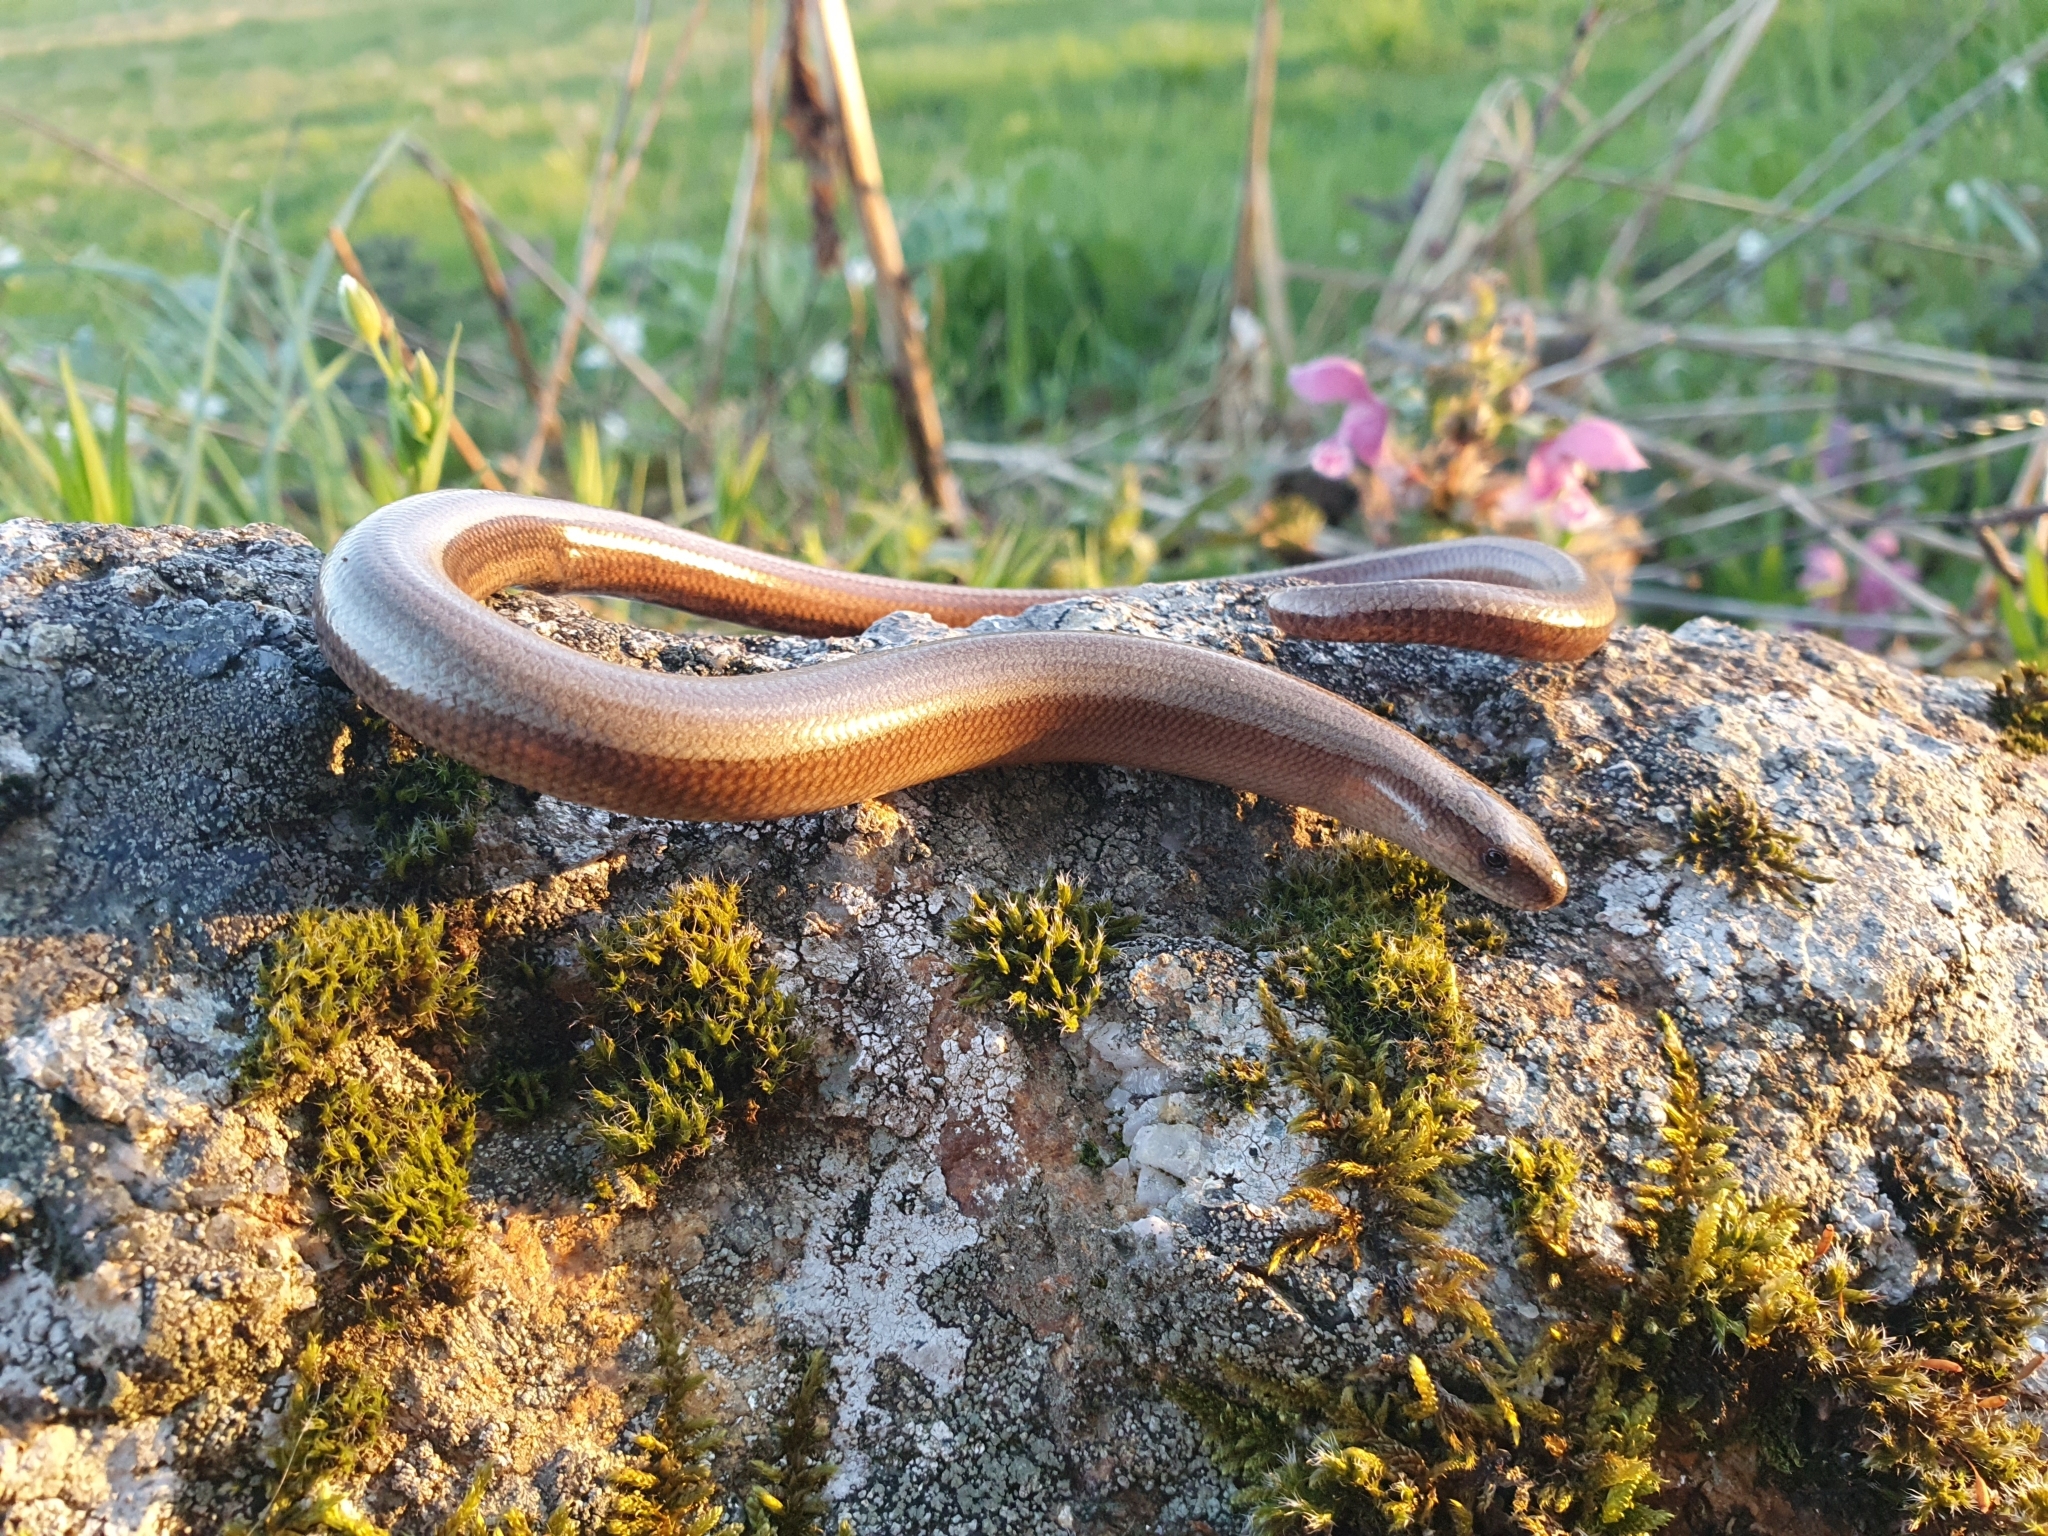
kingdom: Animalia
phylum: Chordata
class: Squamata
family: Anguidae
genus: Anguis
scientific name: Anguis fragilis
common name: Slow worm
